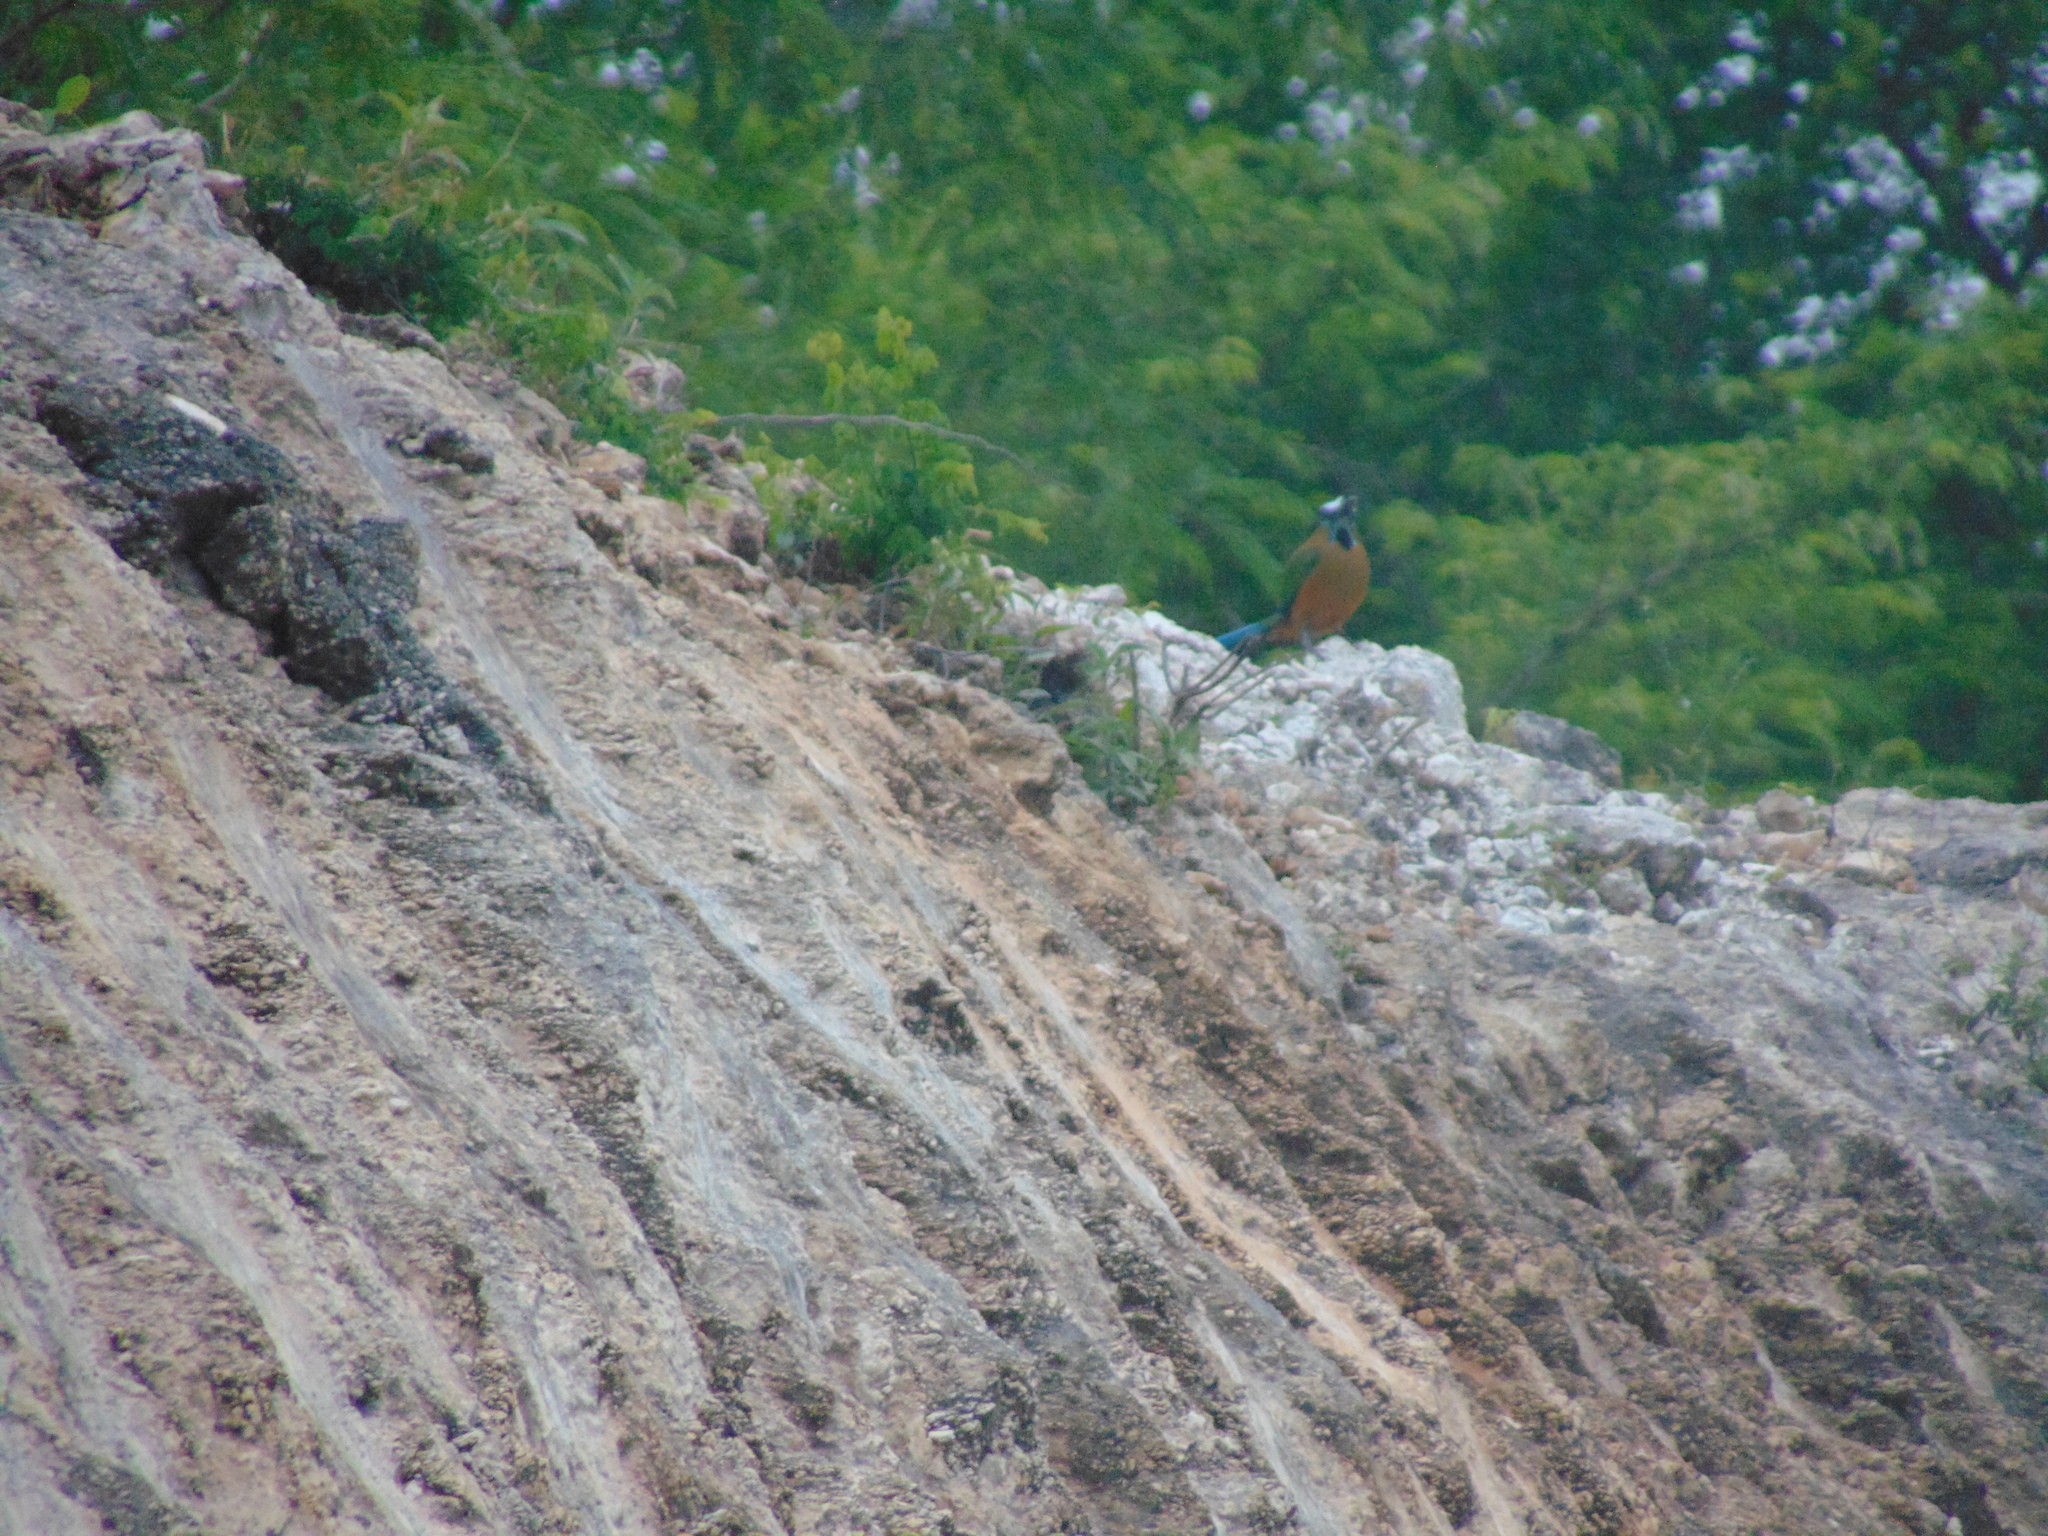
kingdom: Animalia
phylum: Chordata
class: Aves
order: Coraciiformes
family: Momotidae
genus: Eumomota
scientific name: Eumomota superciliosa
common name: Turquoise-browed motmot
